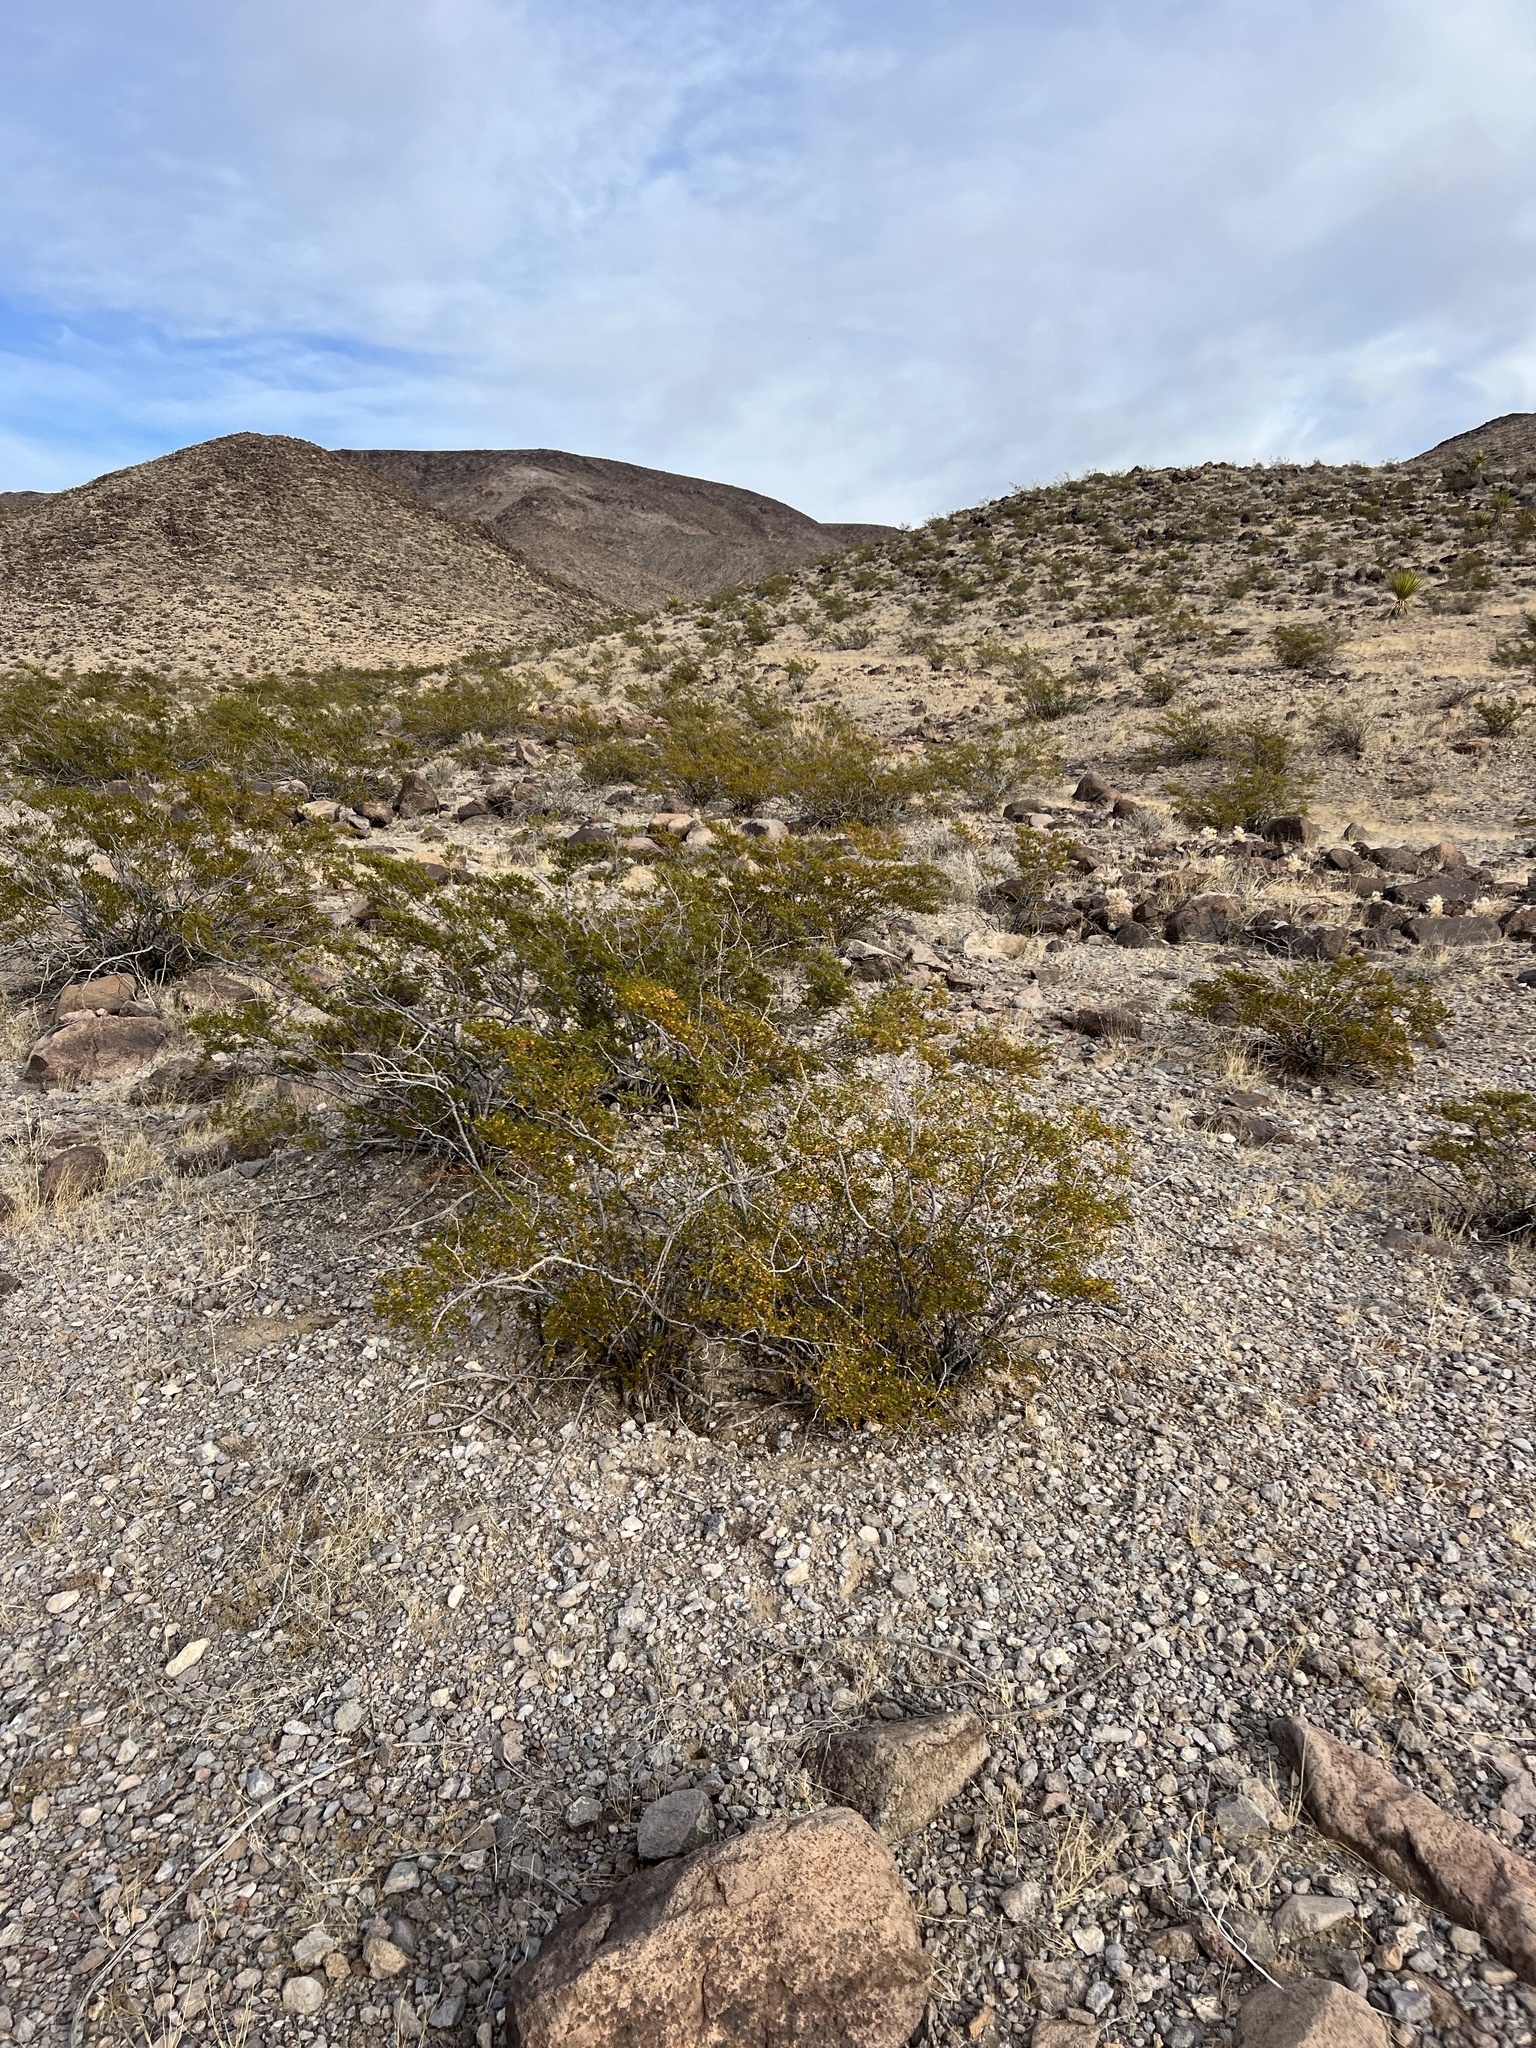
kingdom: Plantae
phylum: Tracheophyta
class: Magnoliopsida
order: Zygophyllales
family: Zygophyllaceae
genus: Larrea
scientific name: Larrea tridentata
